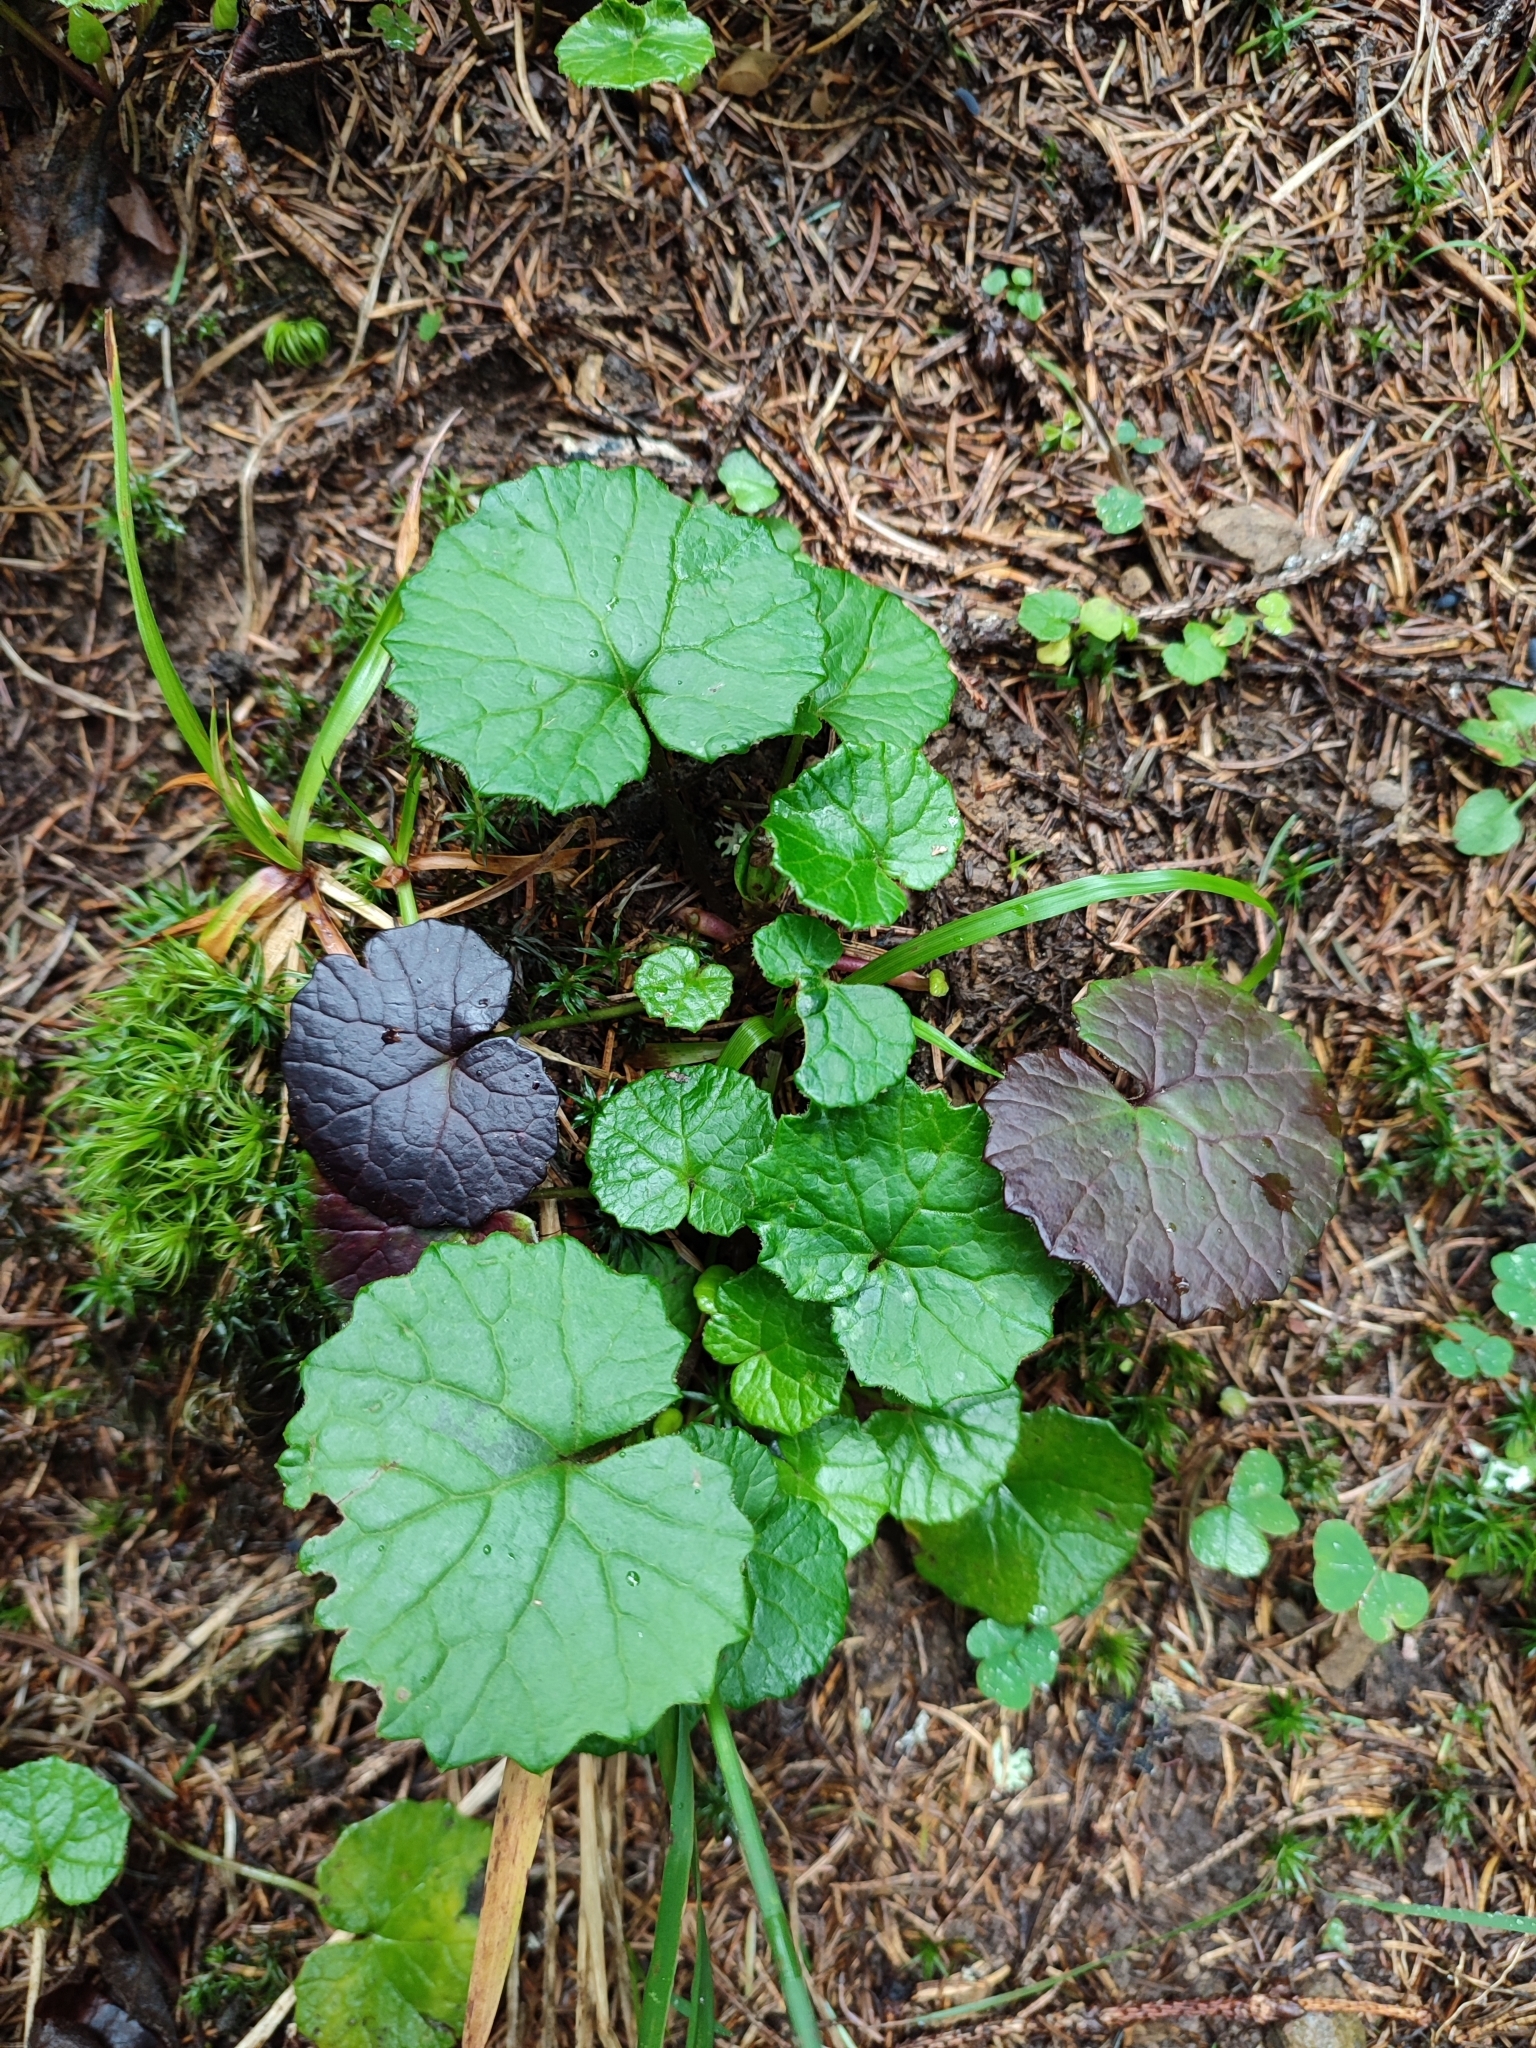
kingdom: Plantae
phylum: Tracheophyta
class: Magnoliopsida
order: Asterales
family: Asteraceae
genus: Homogyne
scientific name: Homogyne alpina
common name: Purple colt's-foot
